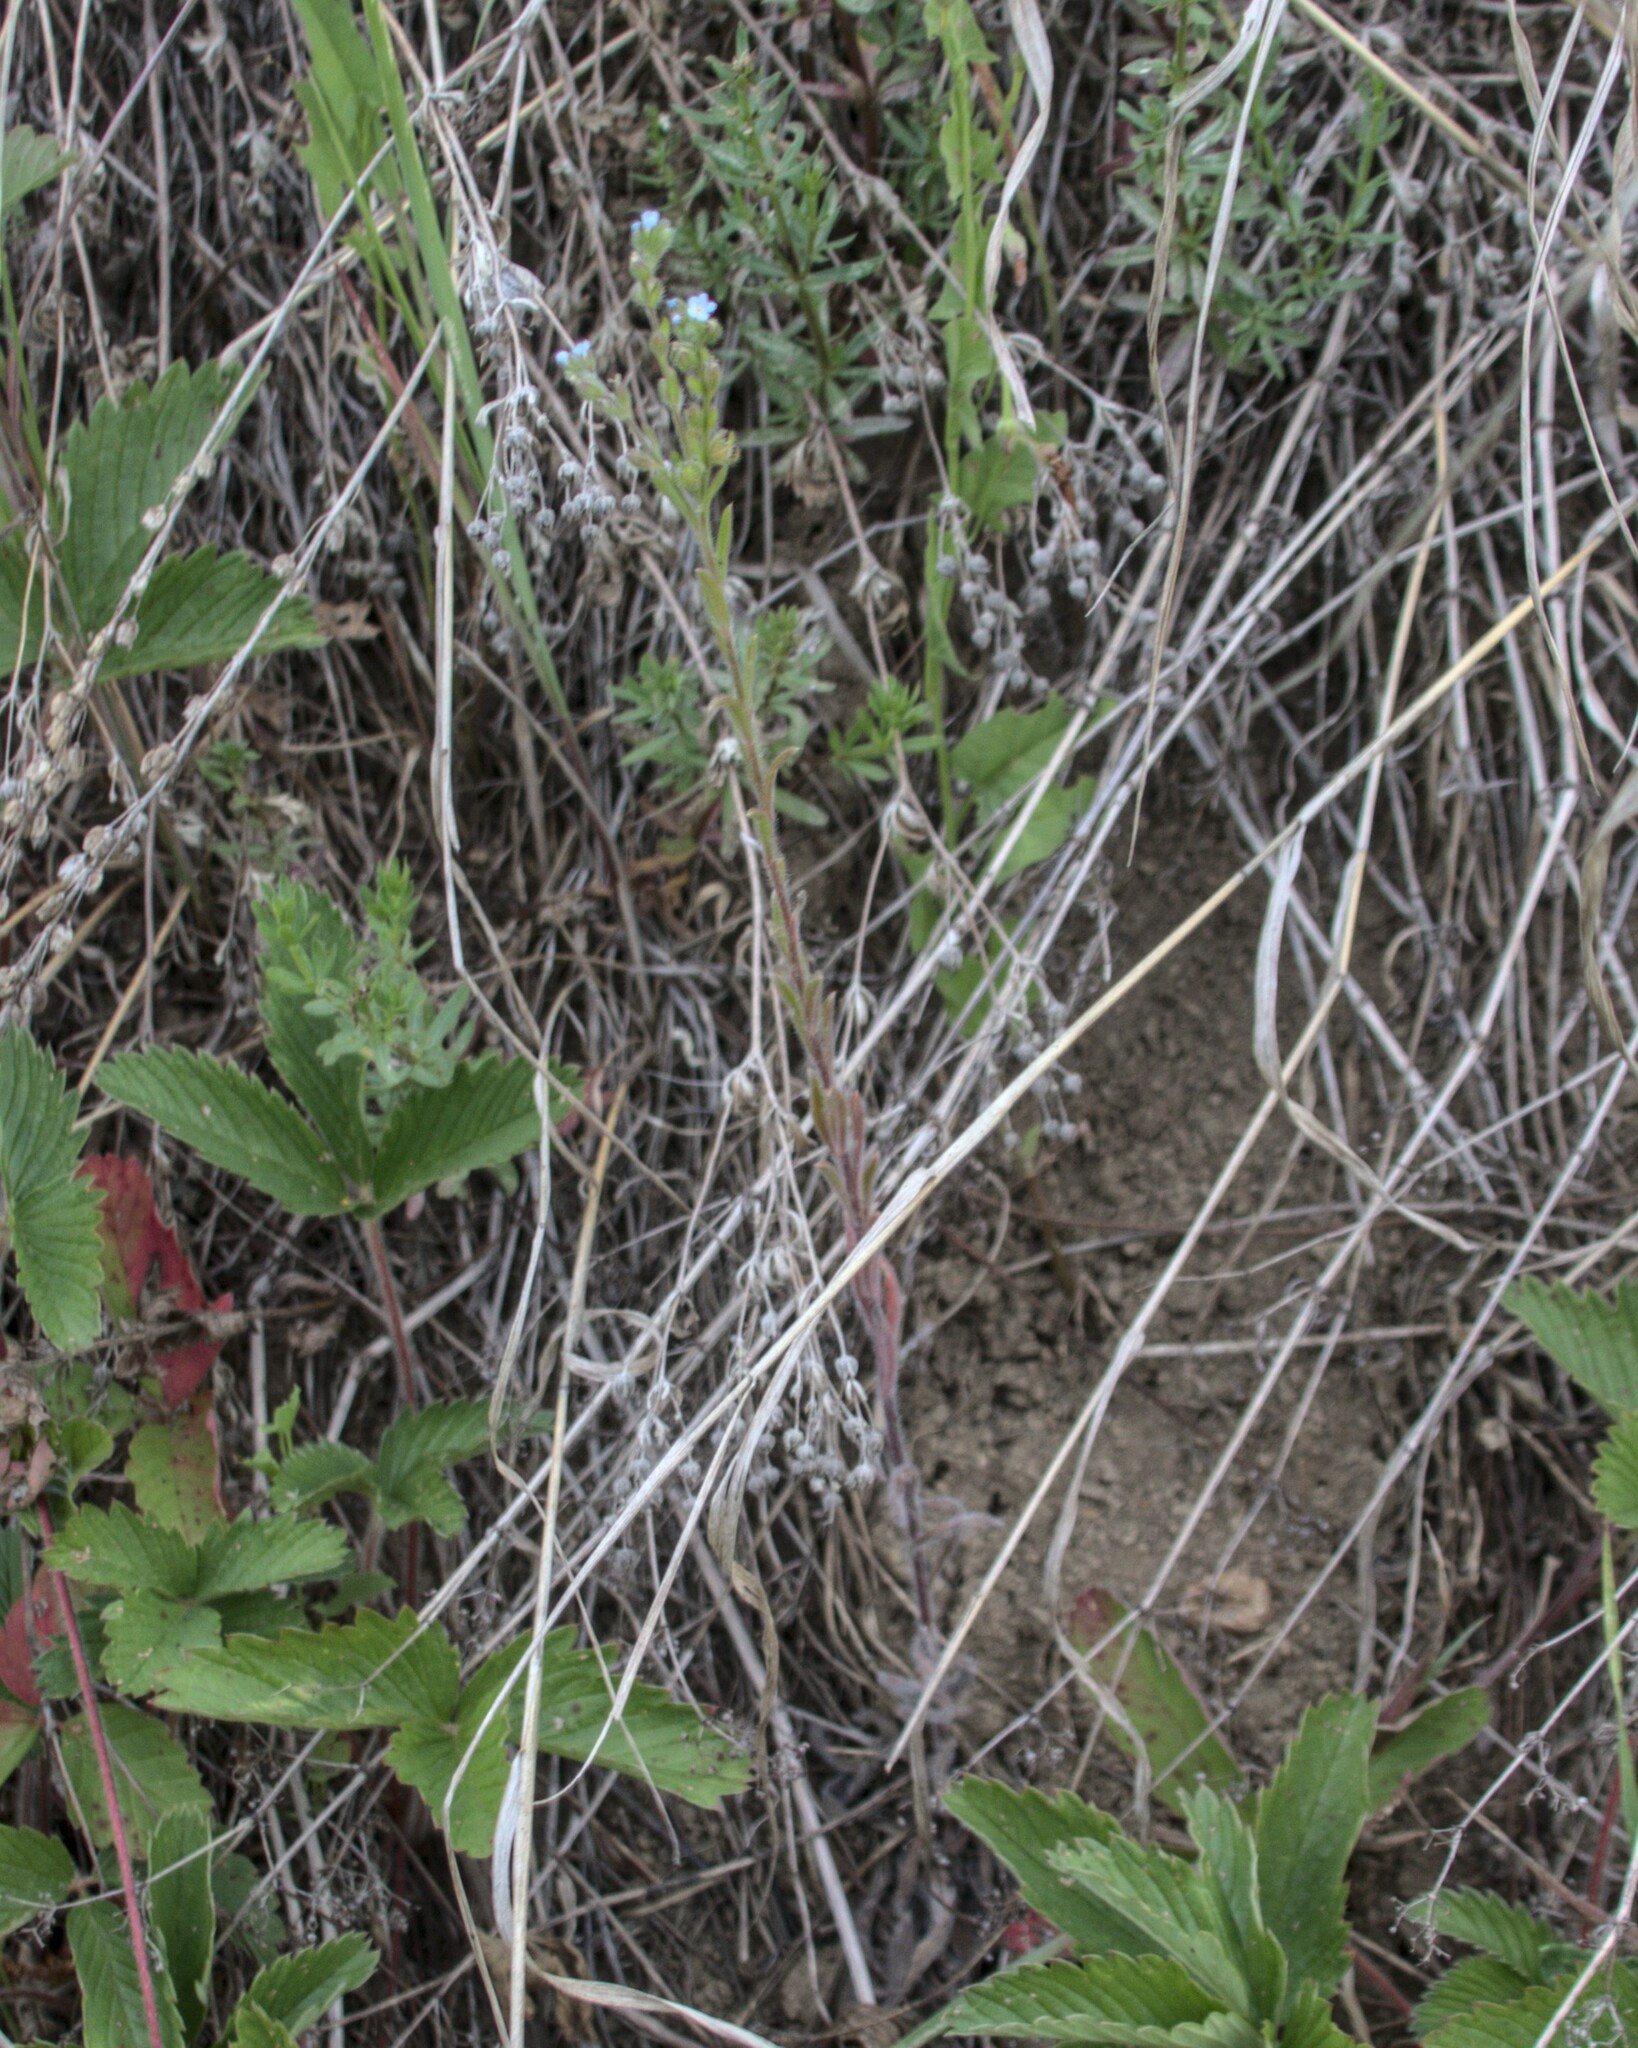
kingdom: Plantae
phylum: Tracheophyta
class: Magnoliopsida
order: Boraginales
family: Boraginaceae
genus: Lappula
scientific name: Lappula squarrosa
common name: European stickseed
